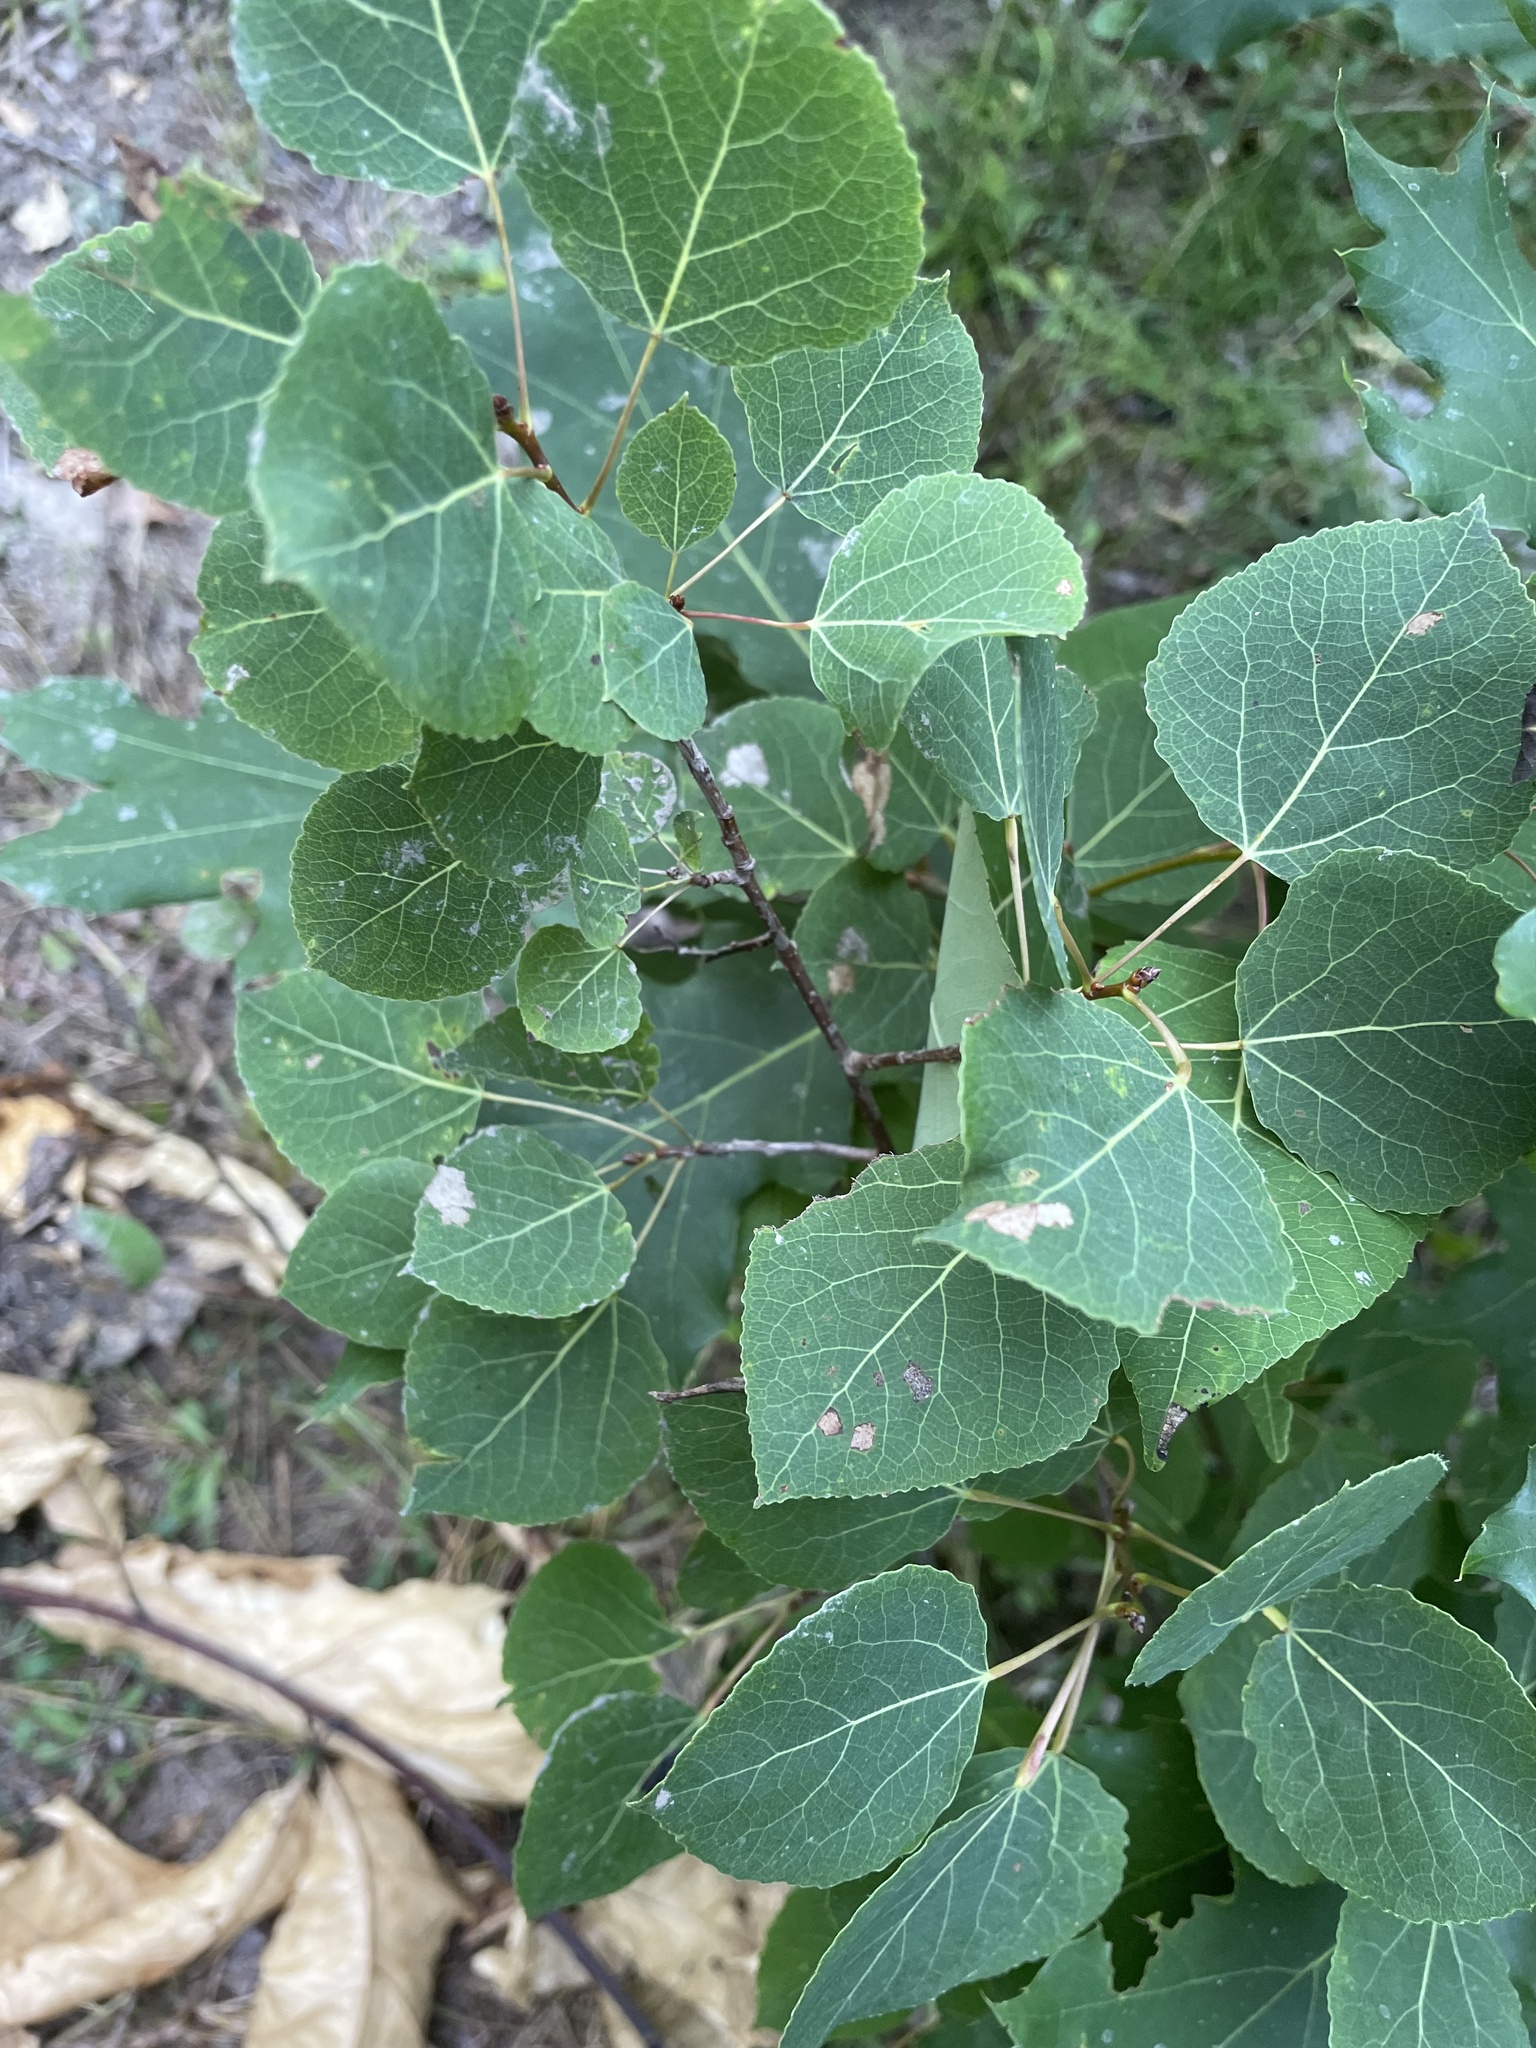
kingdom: Plantae
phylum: Tracheophyta
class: Magnoliopsida
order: Malpighiales
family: Salicaceae
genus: Populus
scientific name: Populus tremuloides
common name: Quaking aspen
